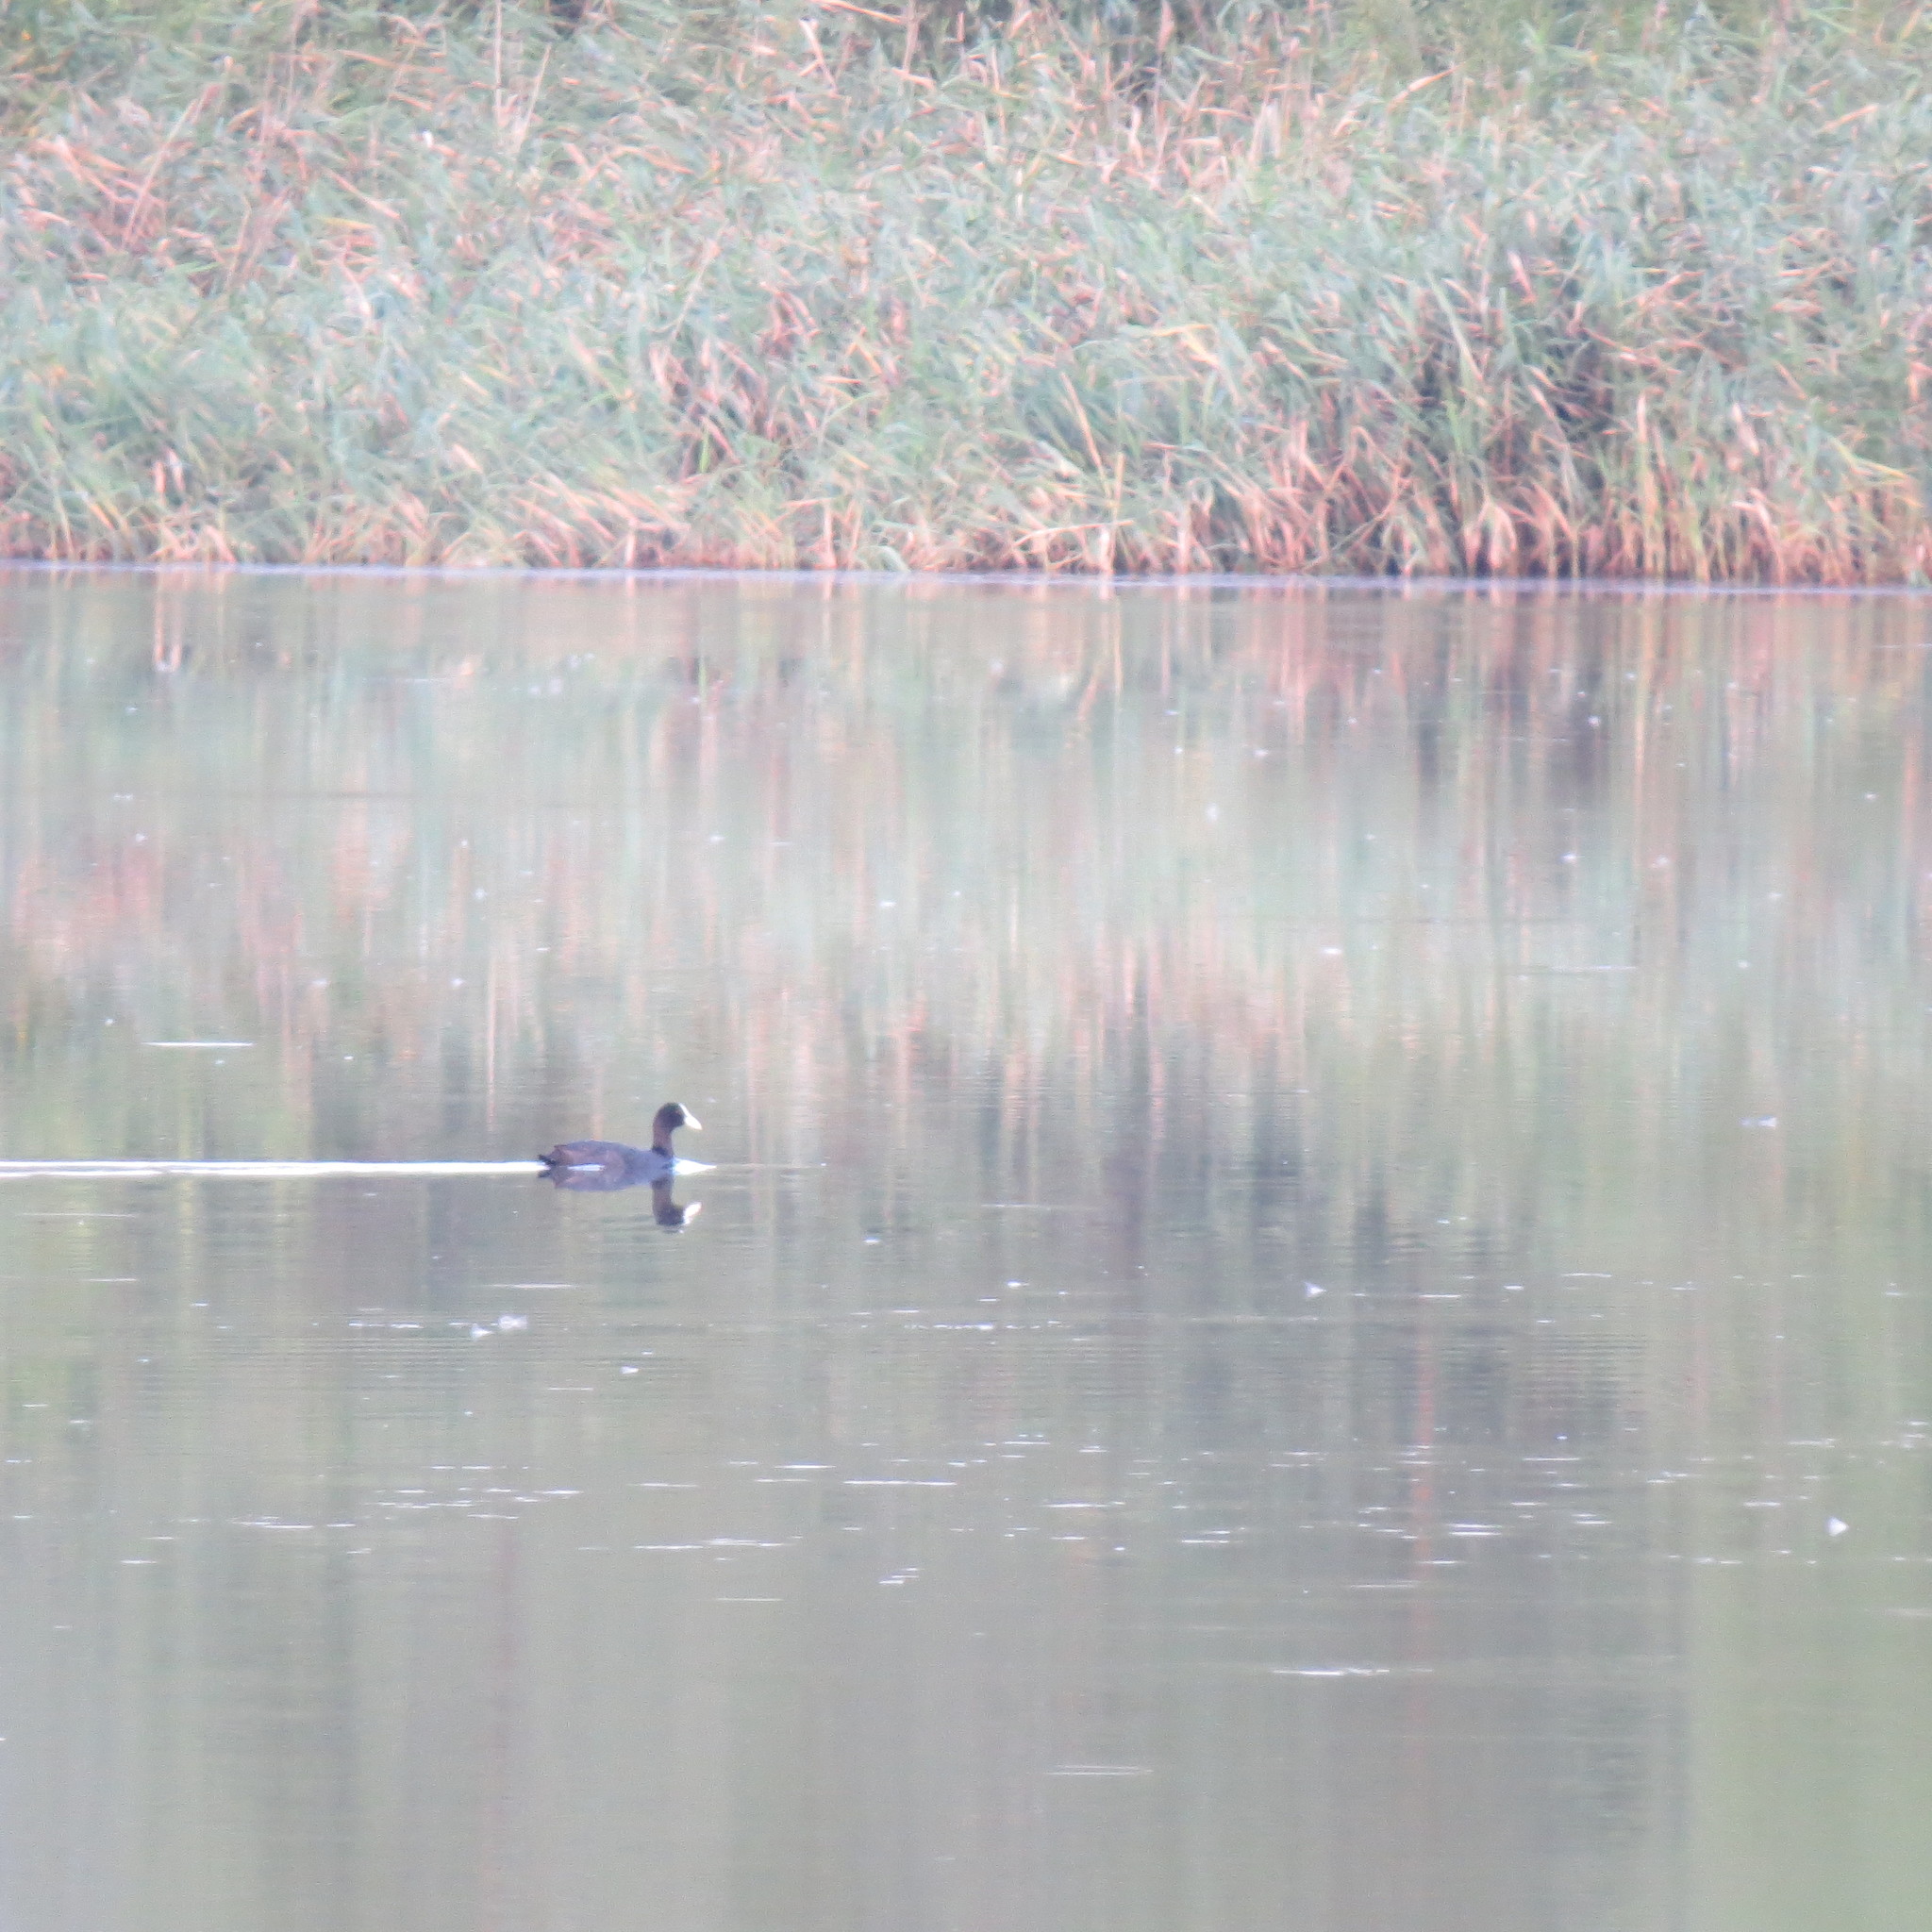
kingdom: Animalia
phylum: Chordata
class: Aves
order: Gruiformes
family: Rallidae
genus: Fulica
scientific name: Fulica atra
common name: Eurasian coot
